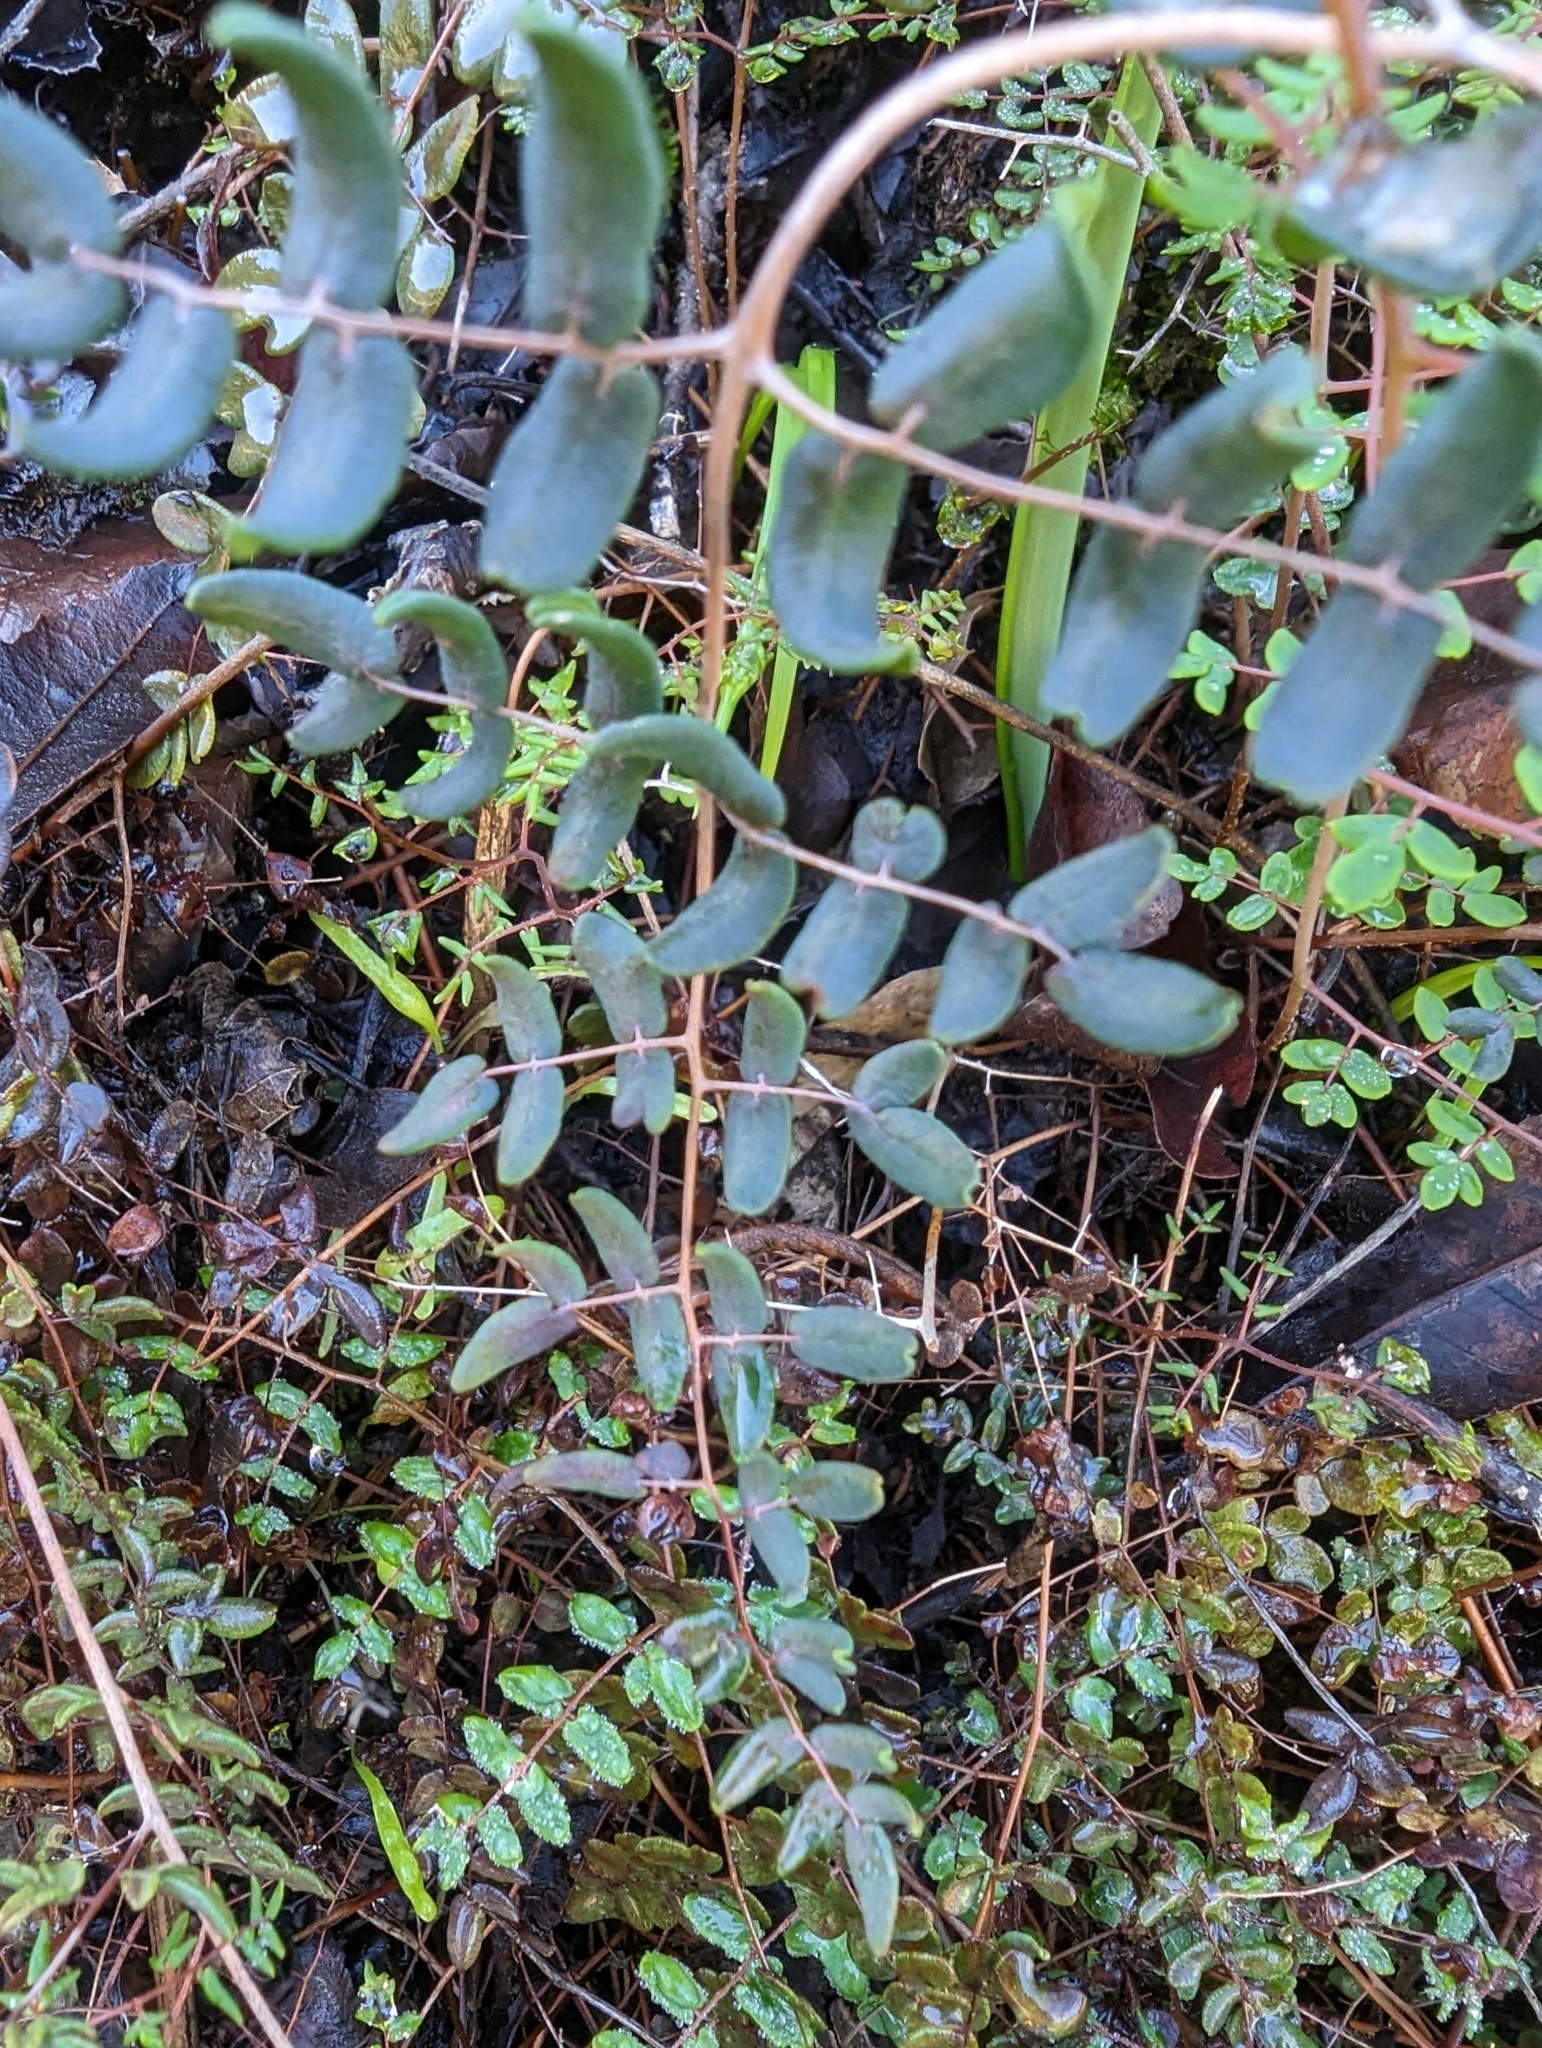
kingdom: Plantae
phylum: Tracheophyta
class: Polypodiopsida
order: Polypodiales
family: Pteridaceae
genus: Pellaea
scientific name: Pellaea andromedifolia
